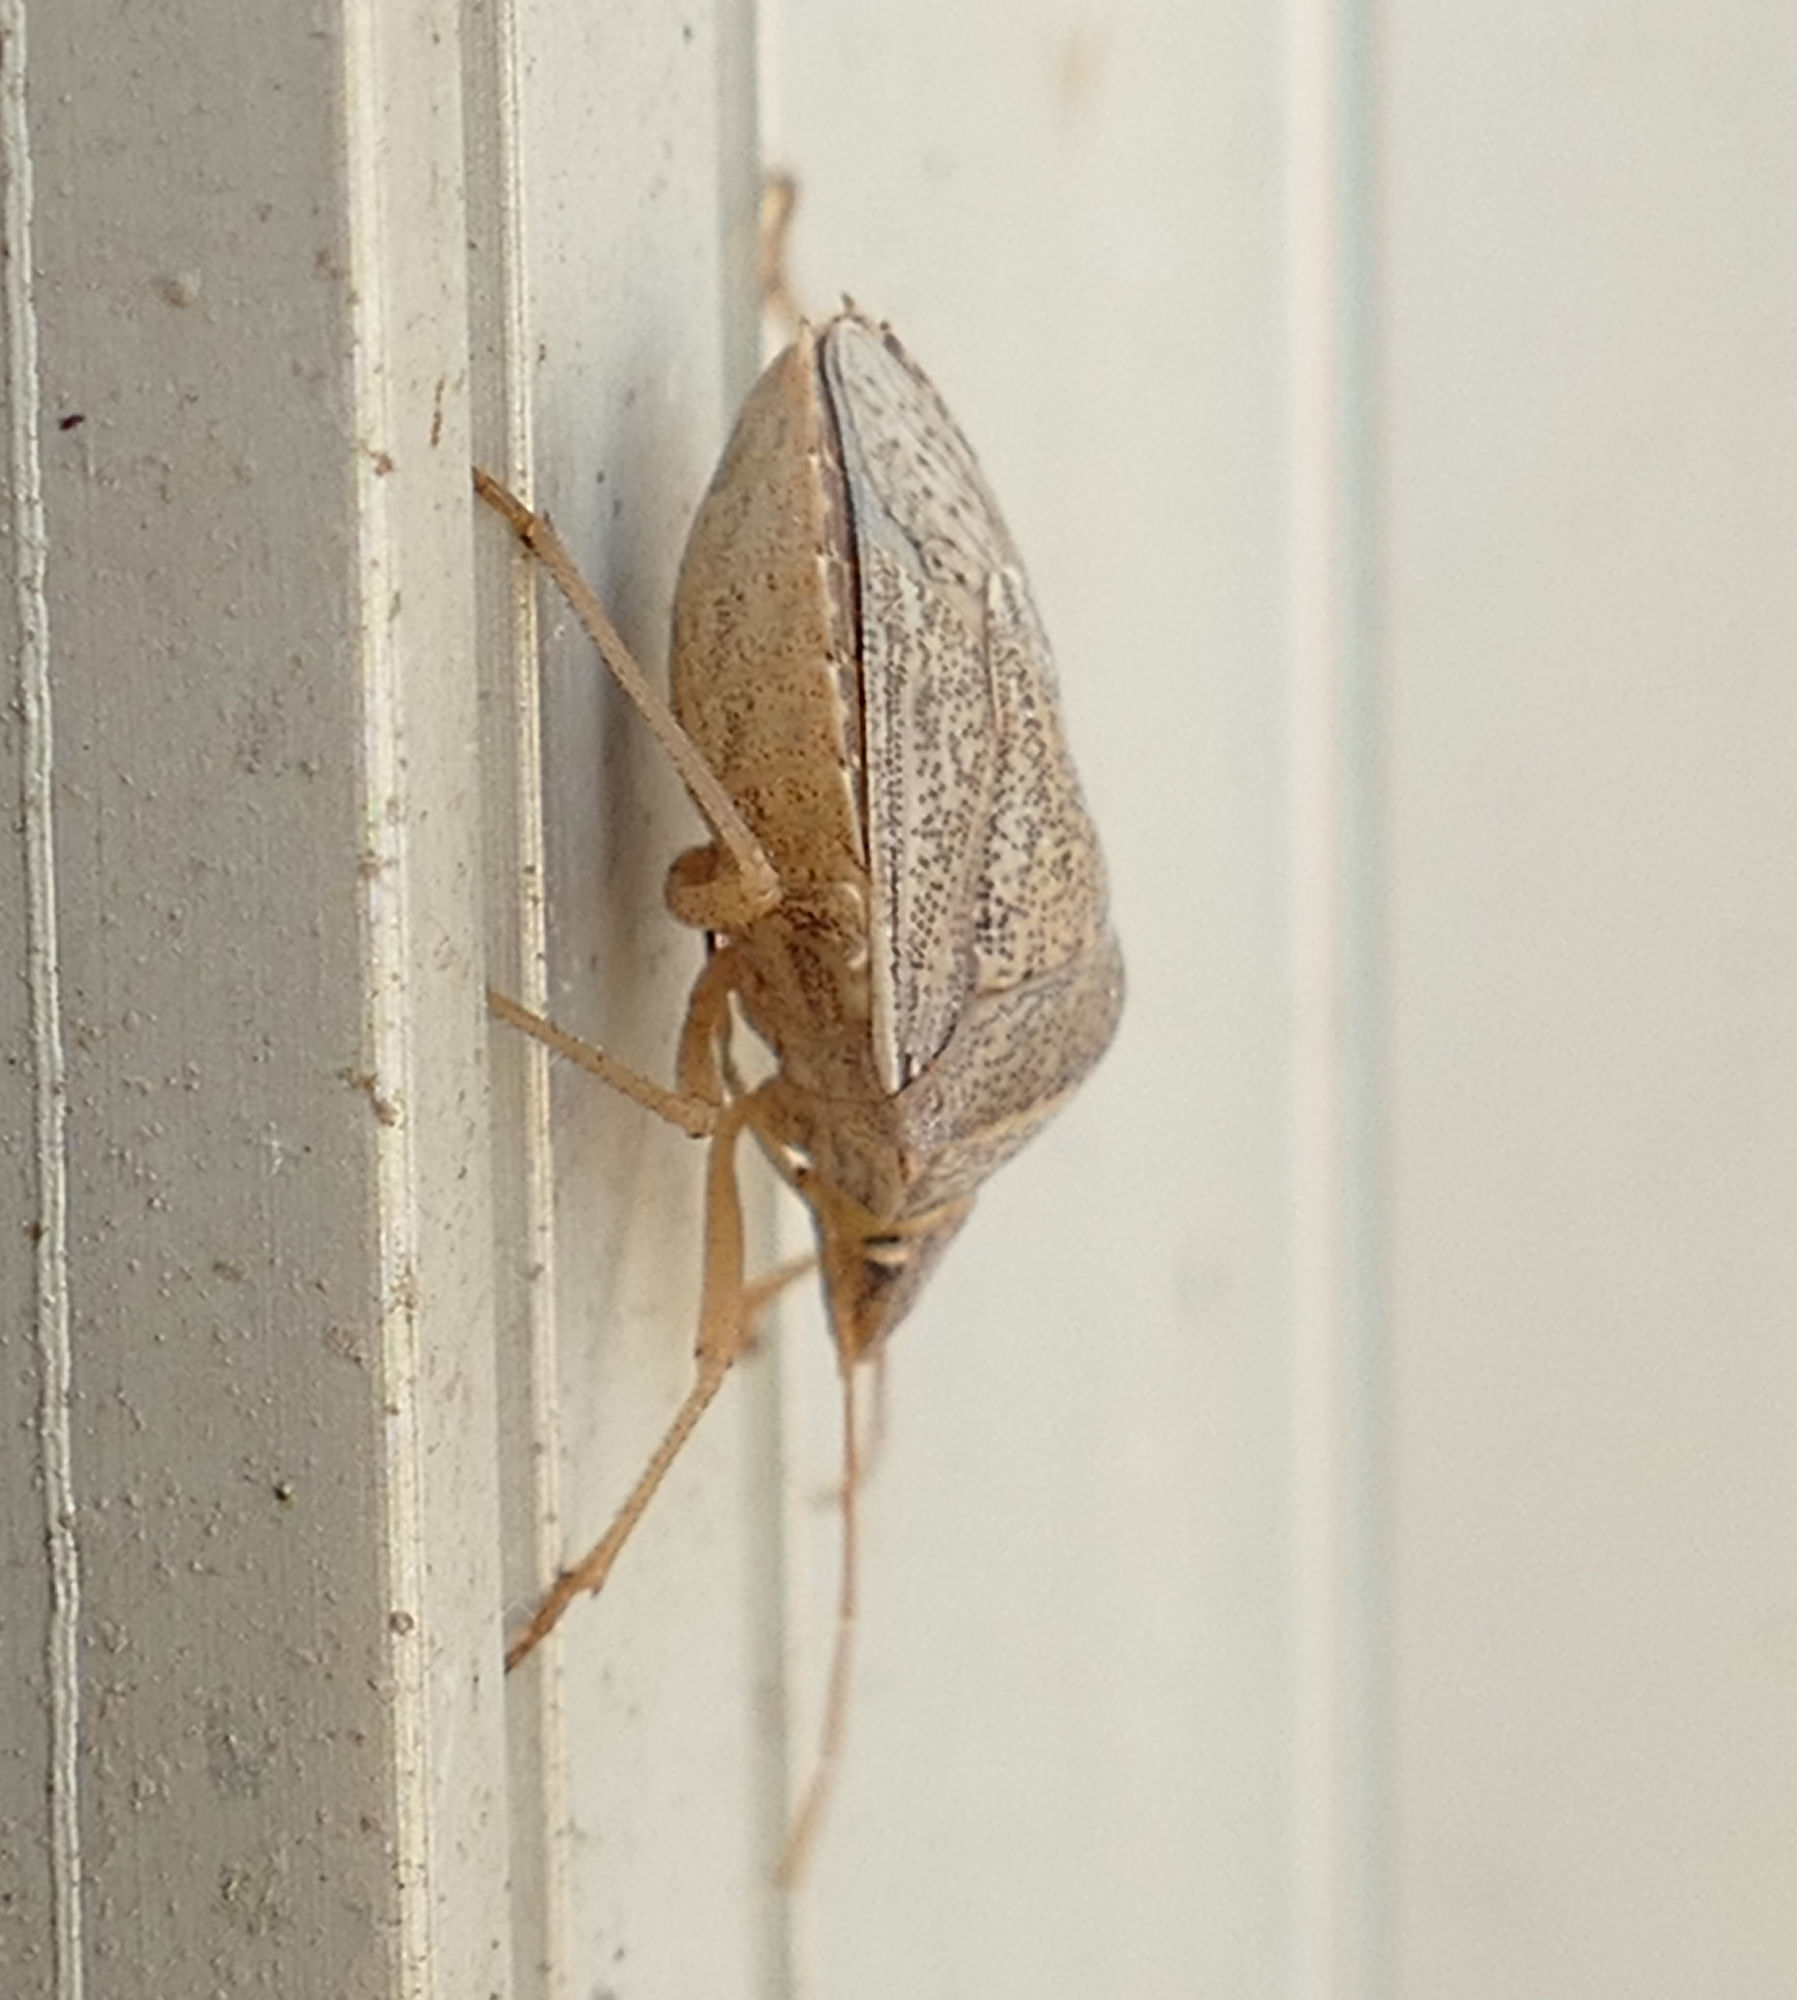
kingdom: Animalia
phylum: Arthropoda
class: Insecta
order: Hemiptera
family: Pentatomidae
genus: Euschistus
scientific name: Euschistus crassus
